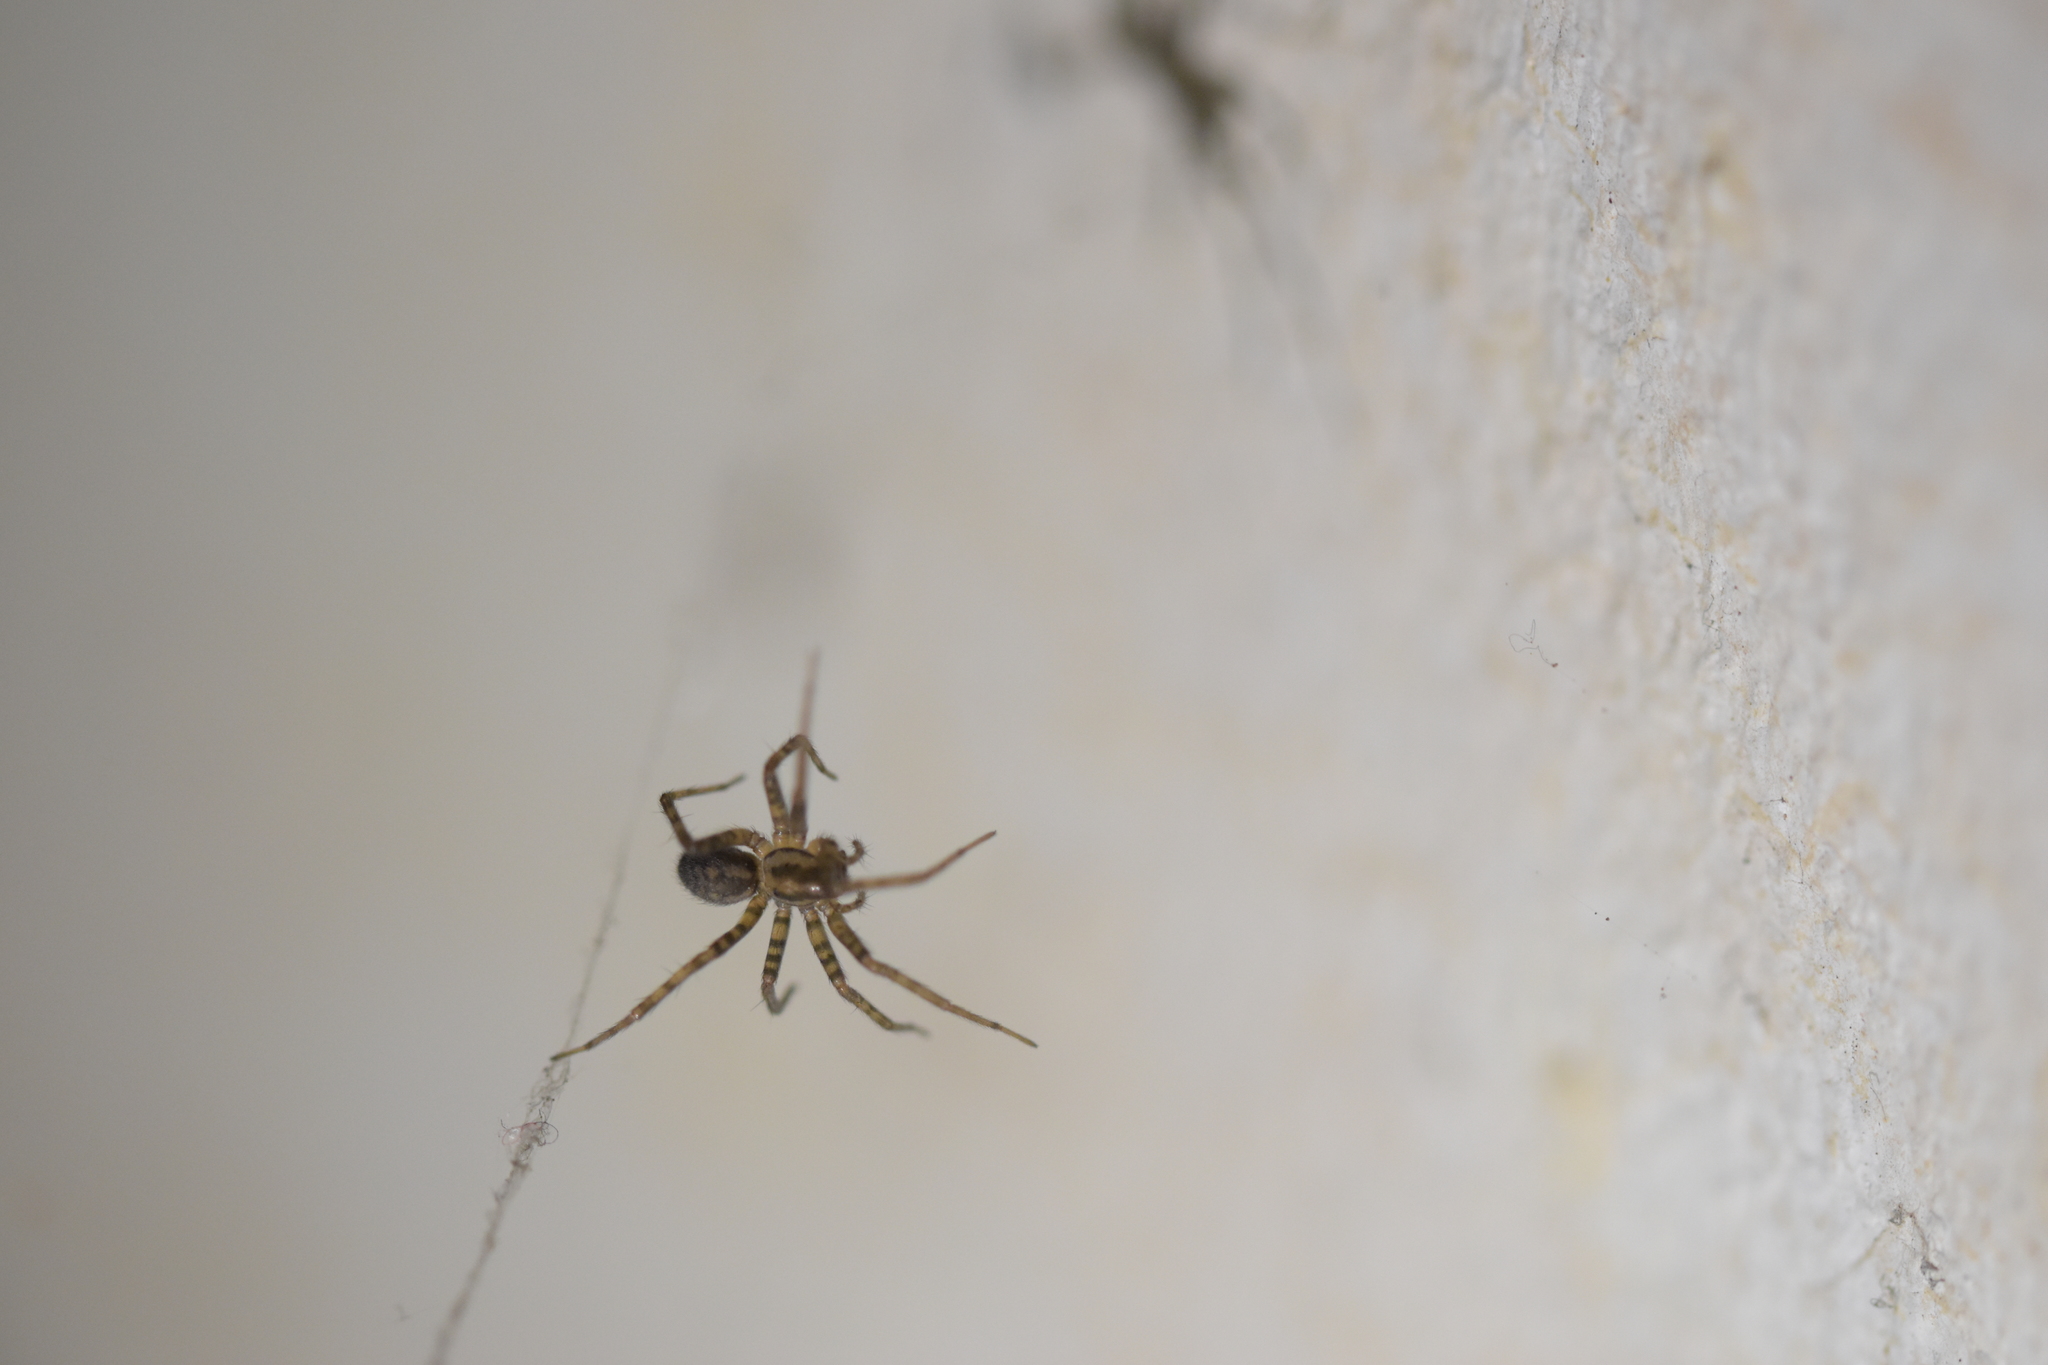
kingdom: Animalia
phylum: Arthropoda
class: Arachnida
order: Araneae
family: Agelenidae
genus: Tegenaria
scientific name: Tegenaria domestica
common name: Barn funnel weaver
